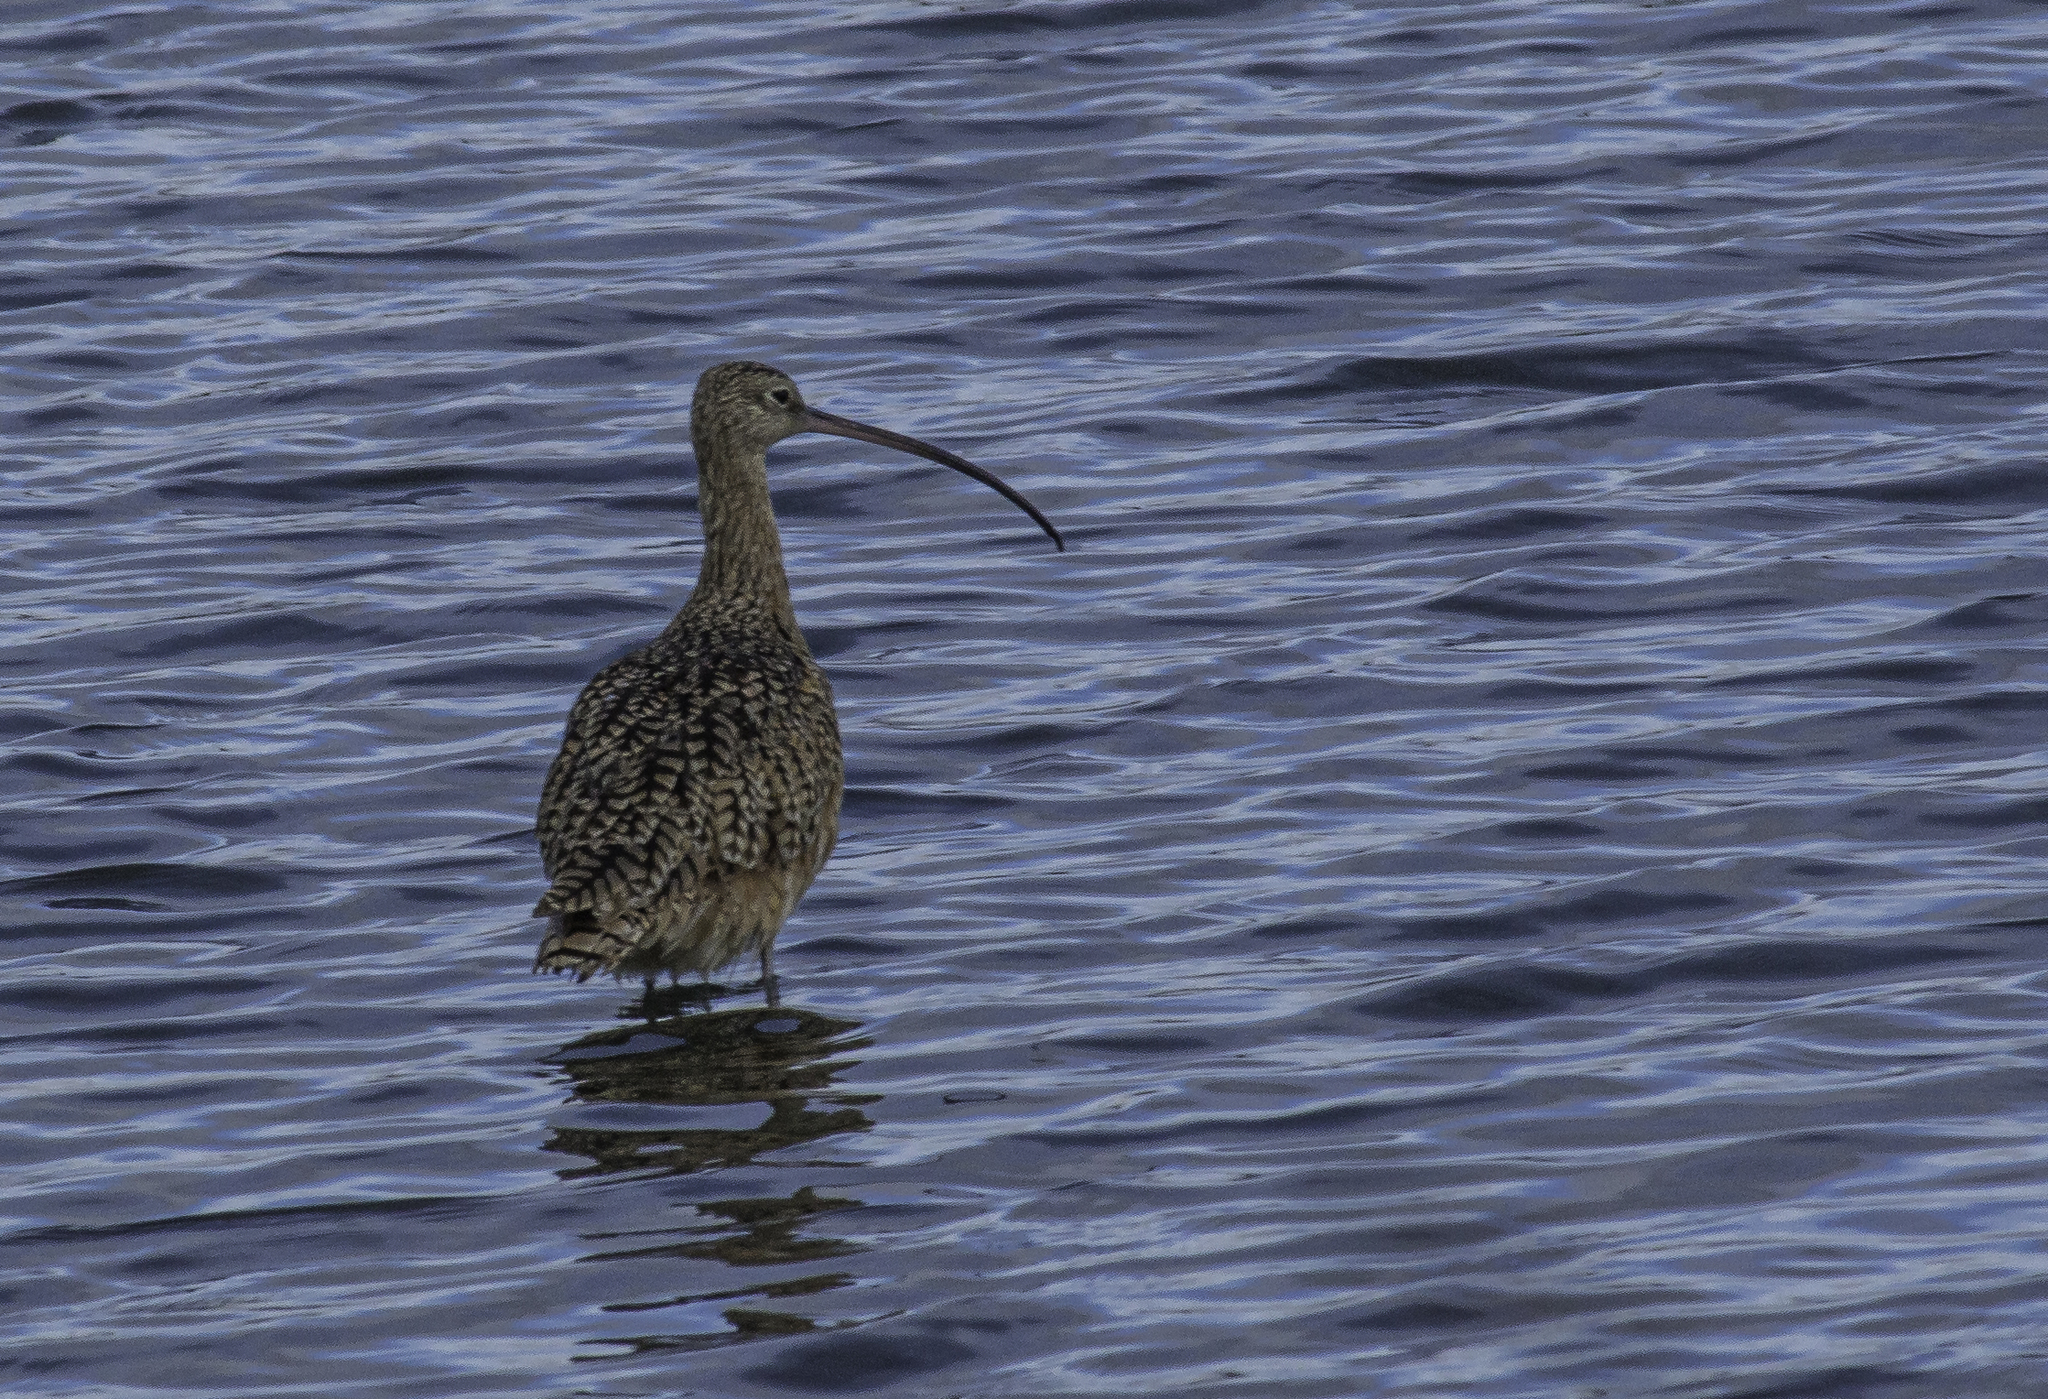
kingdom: Animalia
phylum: Chordata
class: Aves
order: Charadriiformes
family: Scolopacidae
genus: Numenius
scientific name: Numenius americanus
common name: Long-billed curlew
